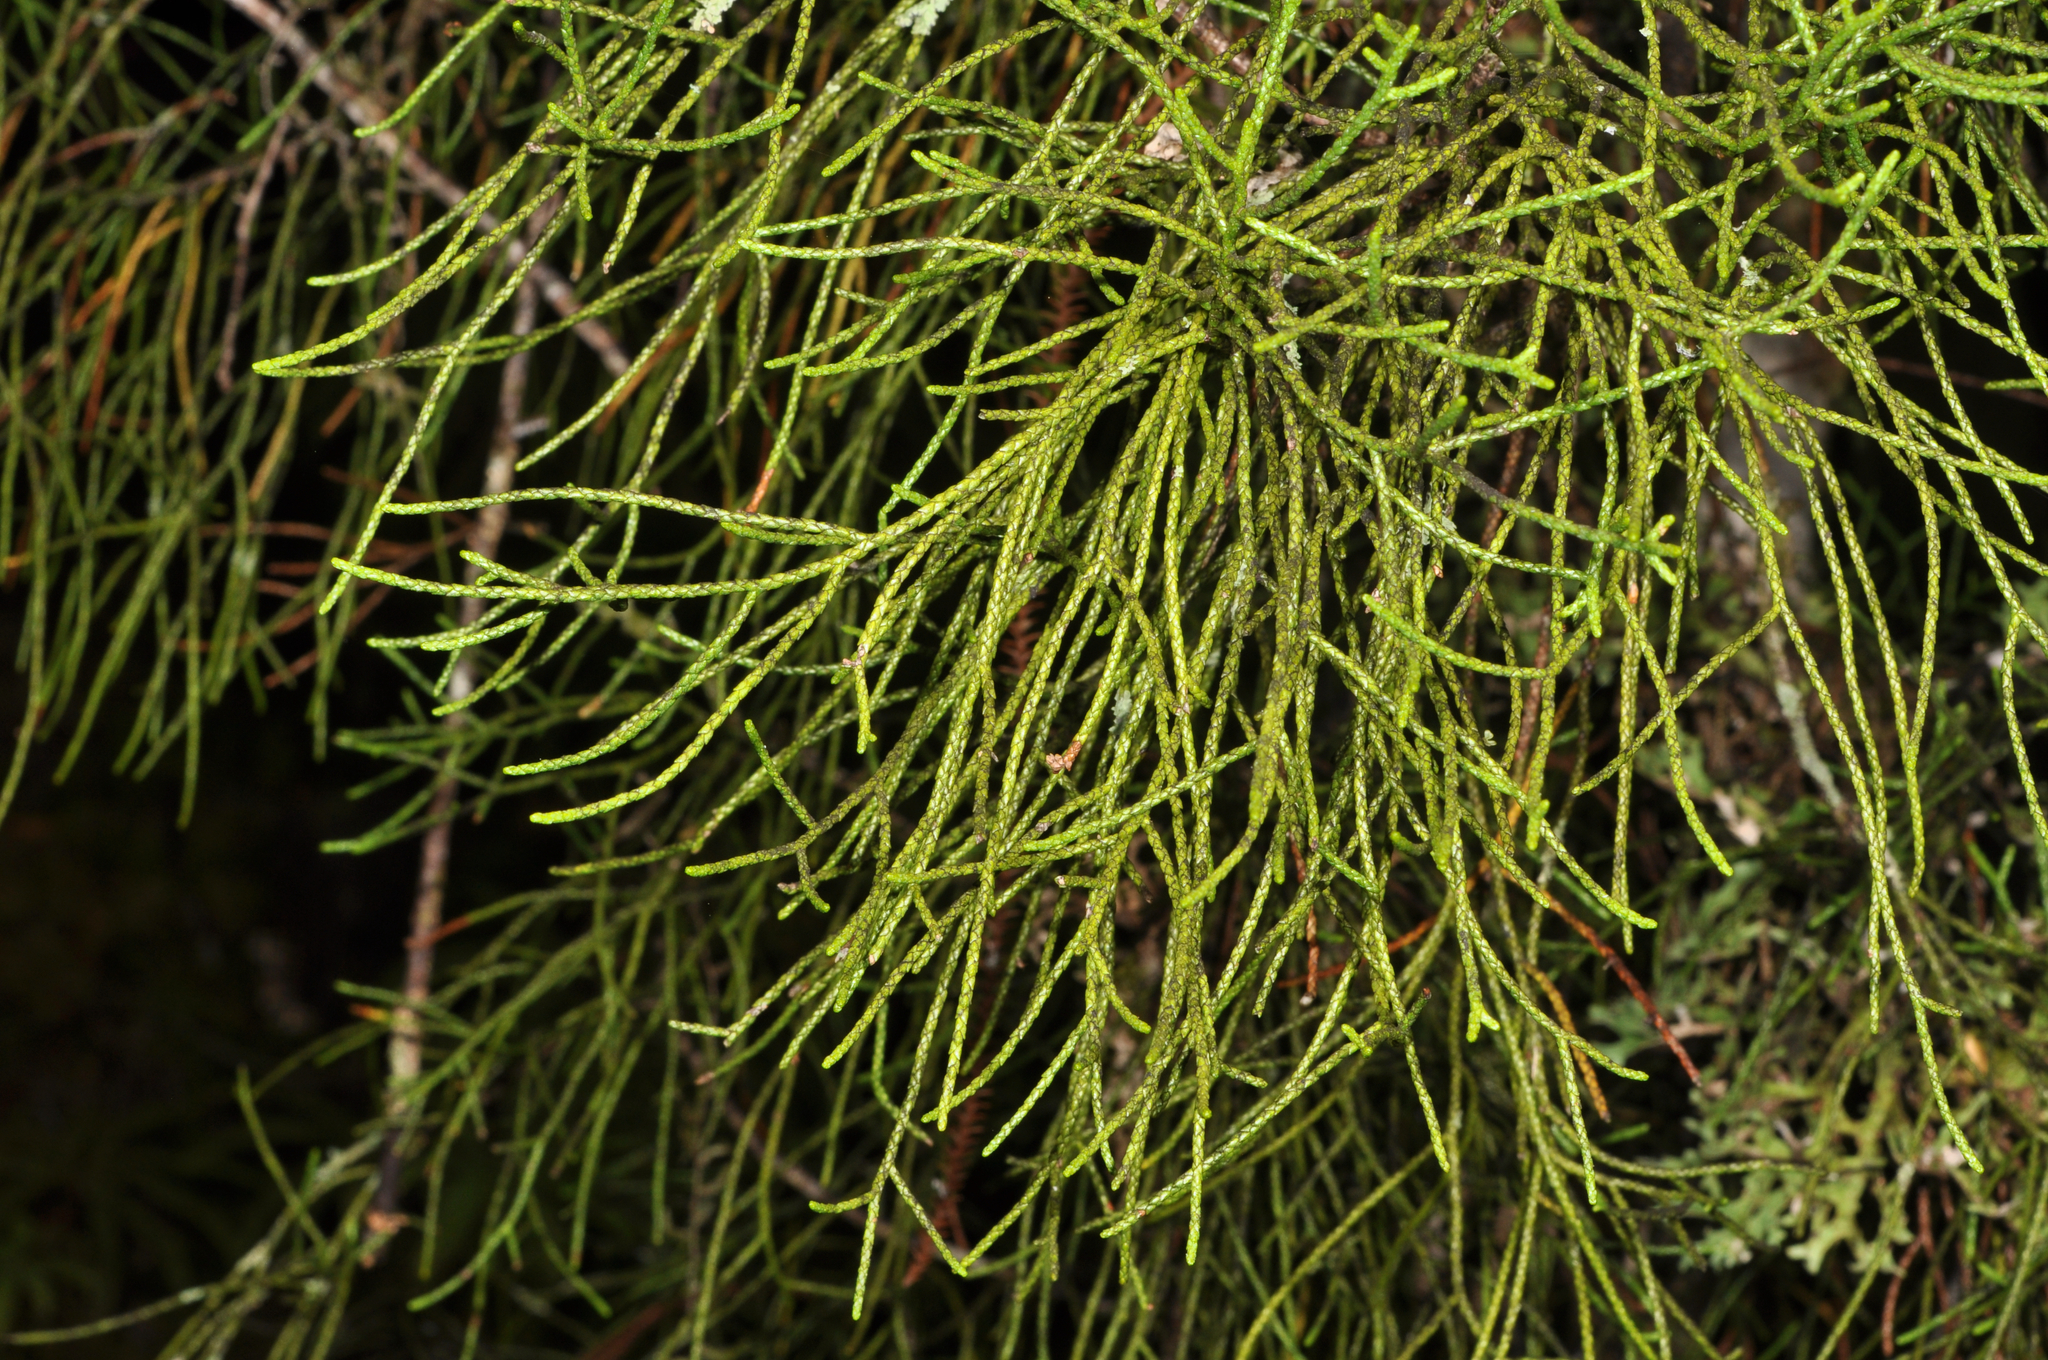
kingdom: Plantae
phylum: Tracheophyta
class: Pinopsida
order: Pinales
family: Podocarpaceae
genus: Manoao
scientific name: Manoao colensoi
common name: Silver pine
